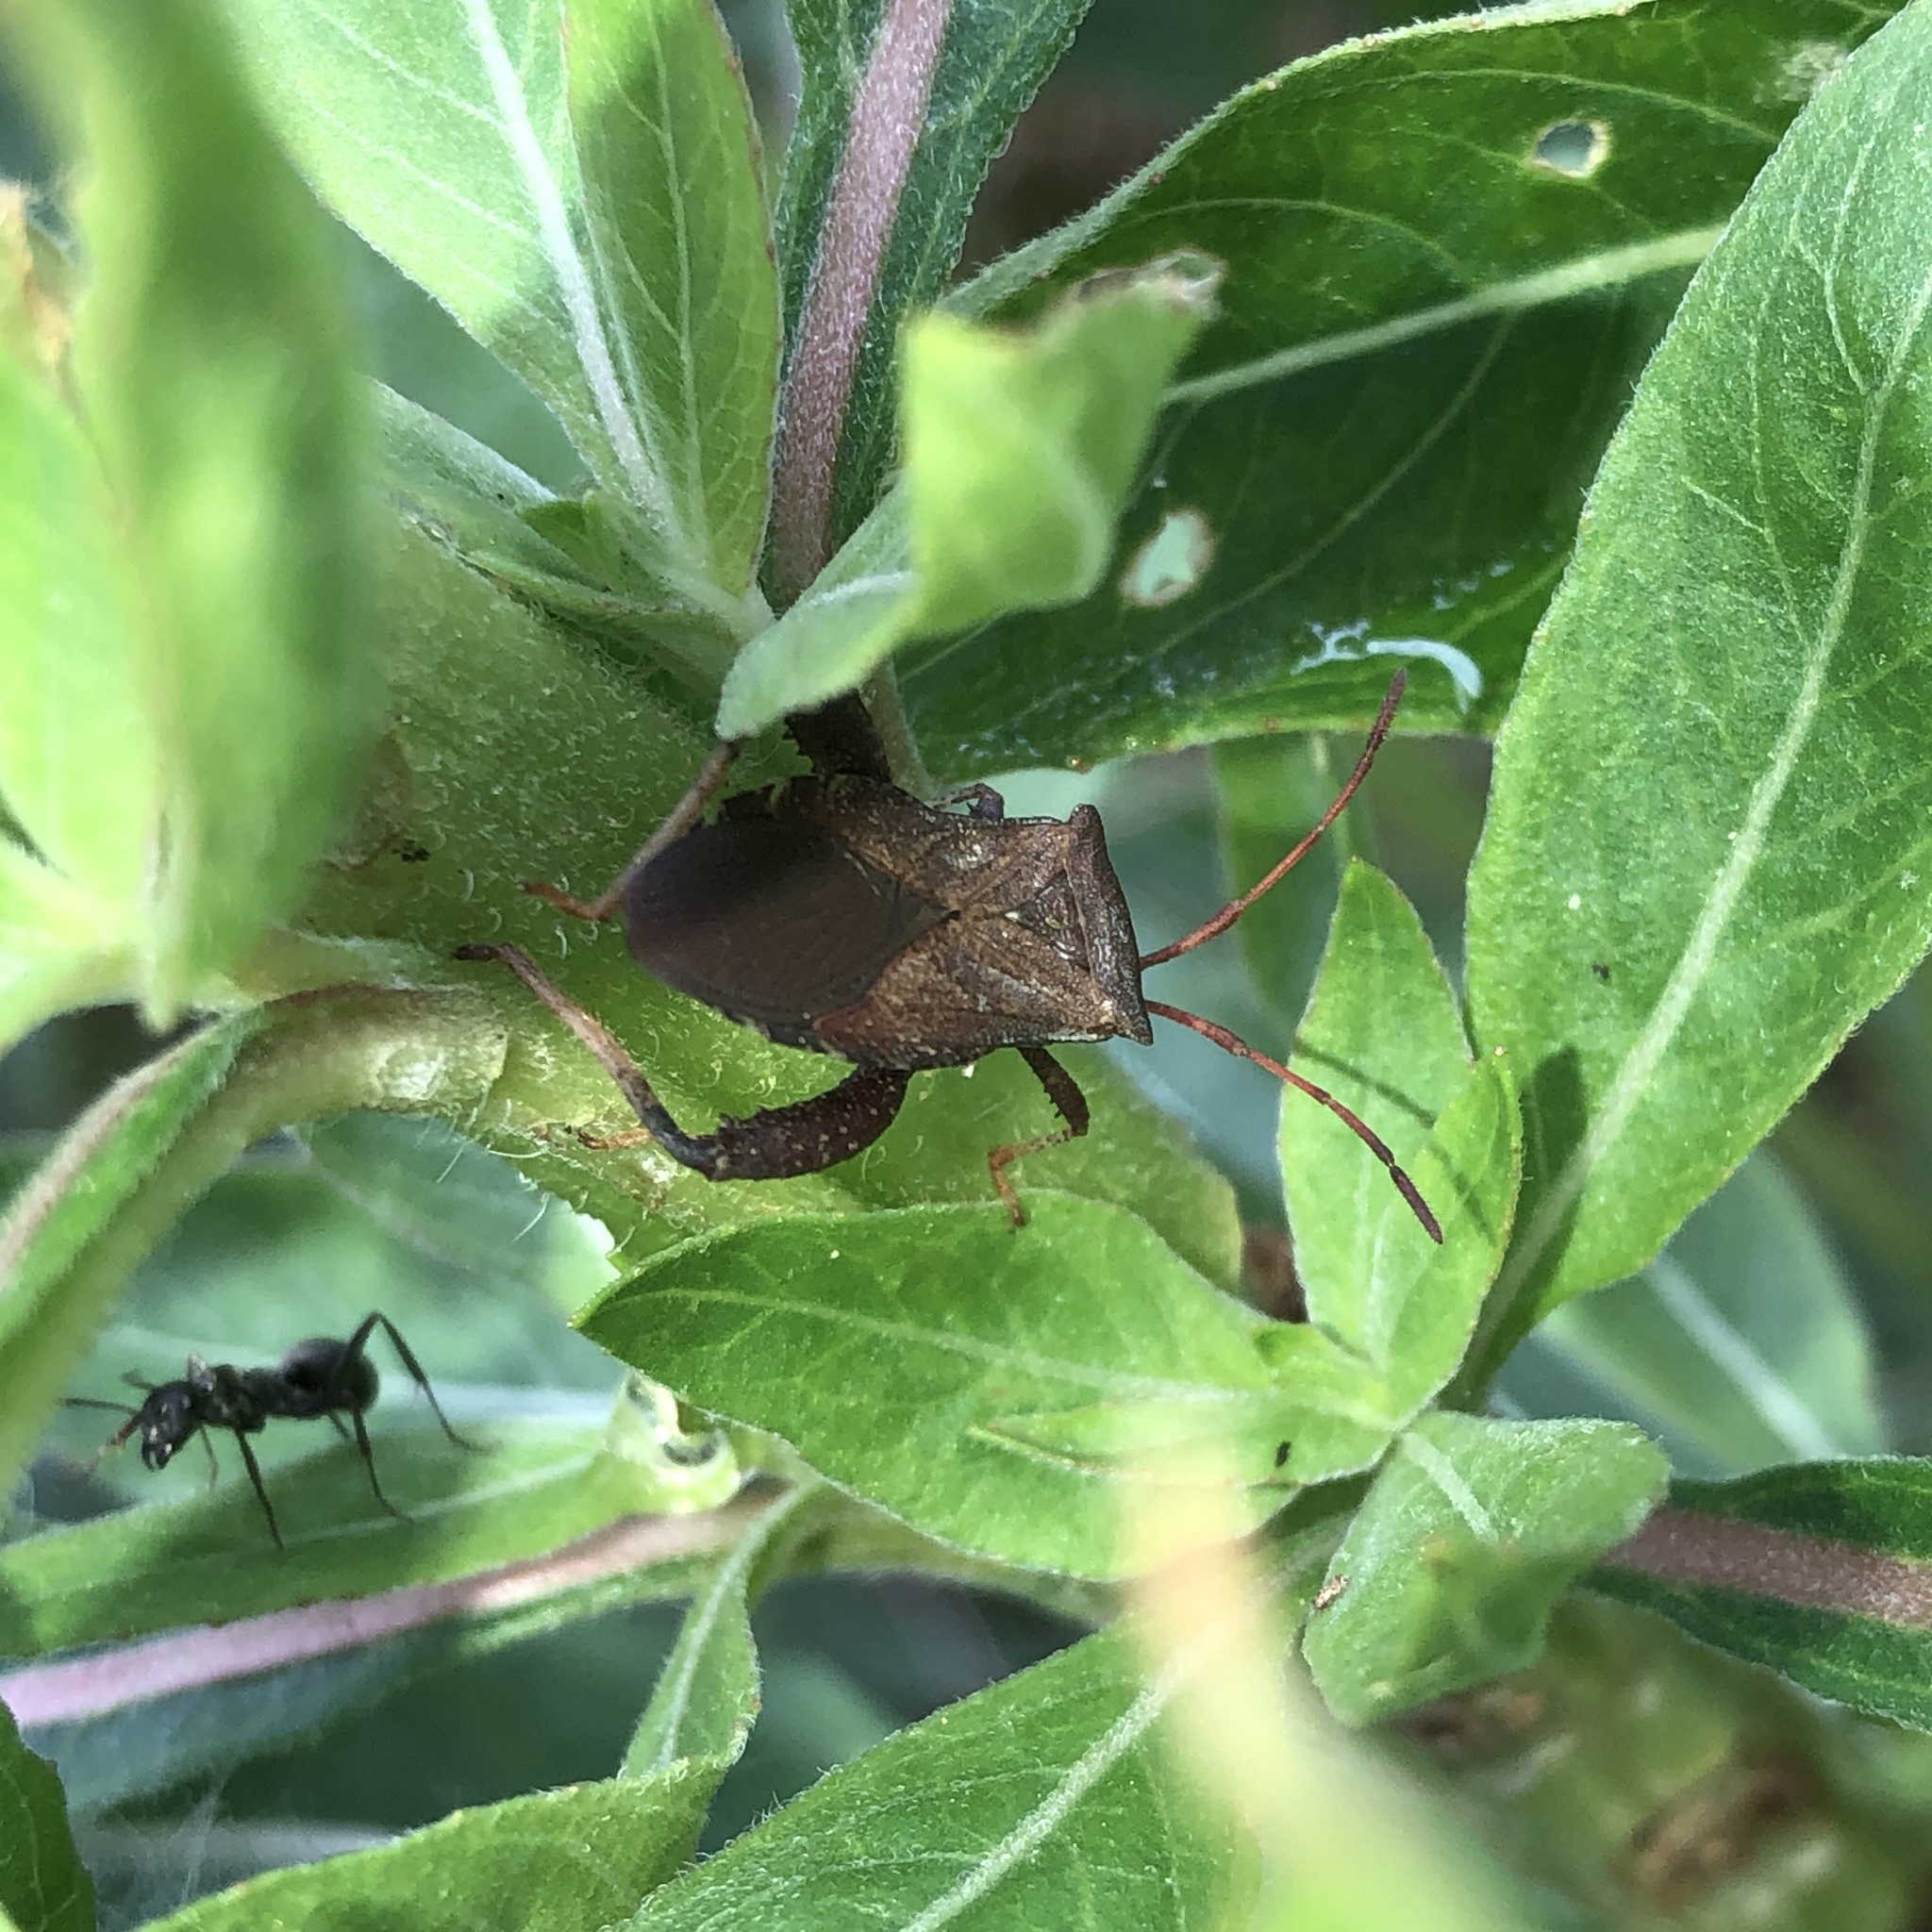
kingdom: Animalia
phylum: Arthropoda
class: Insecta
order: Hemiptera
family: Coreidae
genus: Euthochtha
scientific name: Euthochtha galeator
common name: Helmeted squash bug
